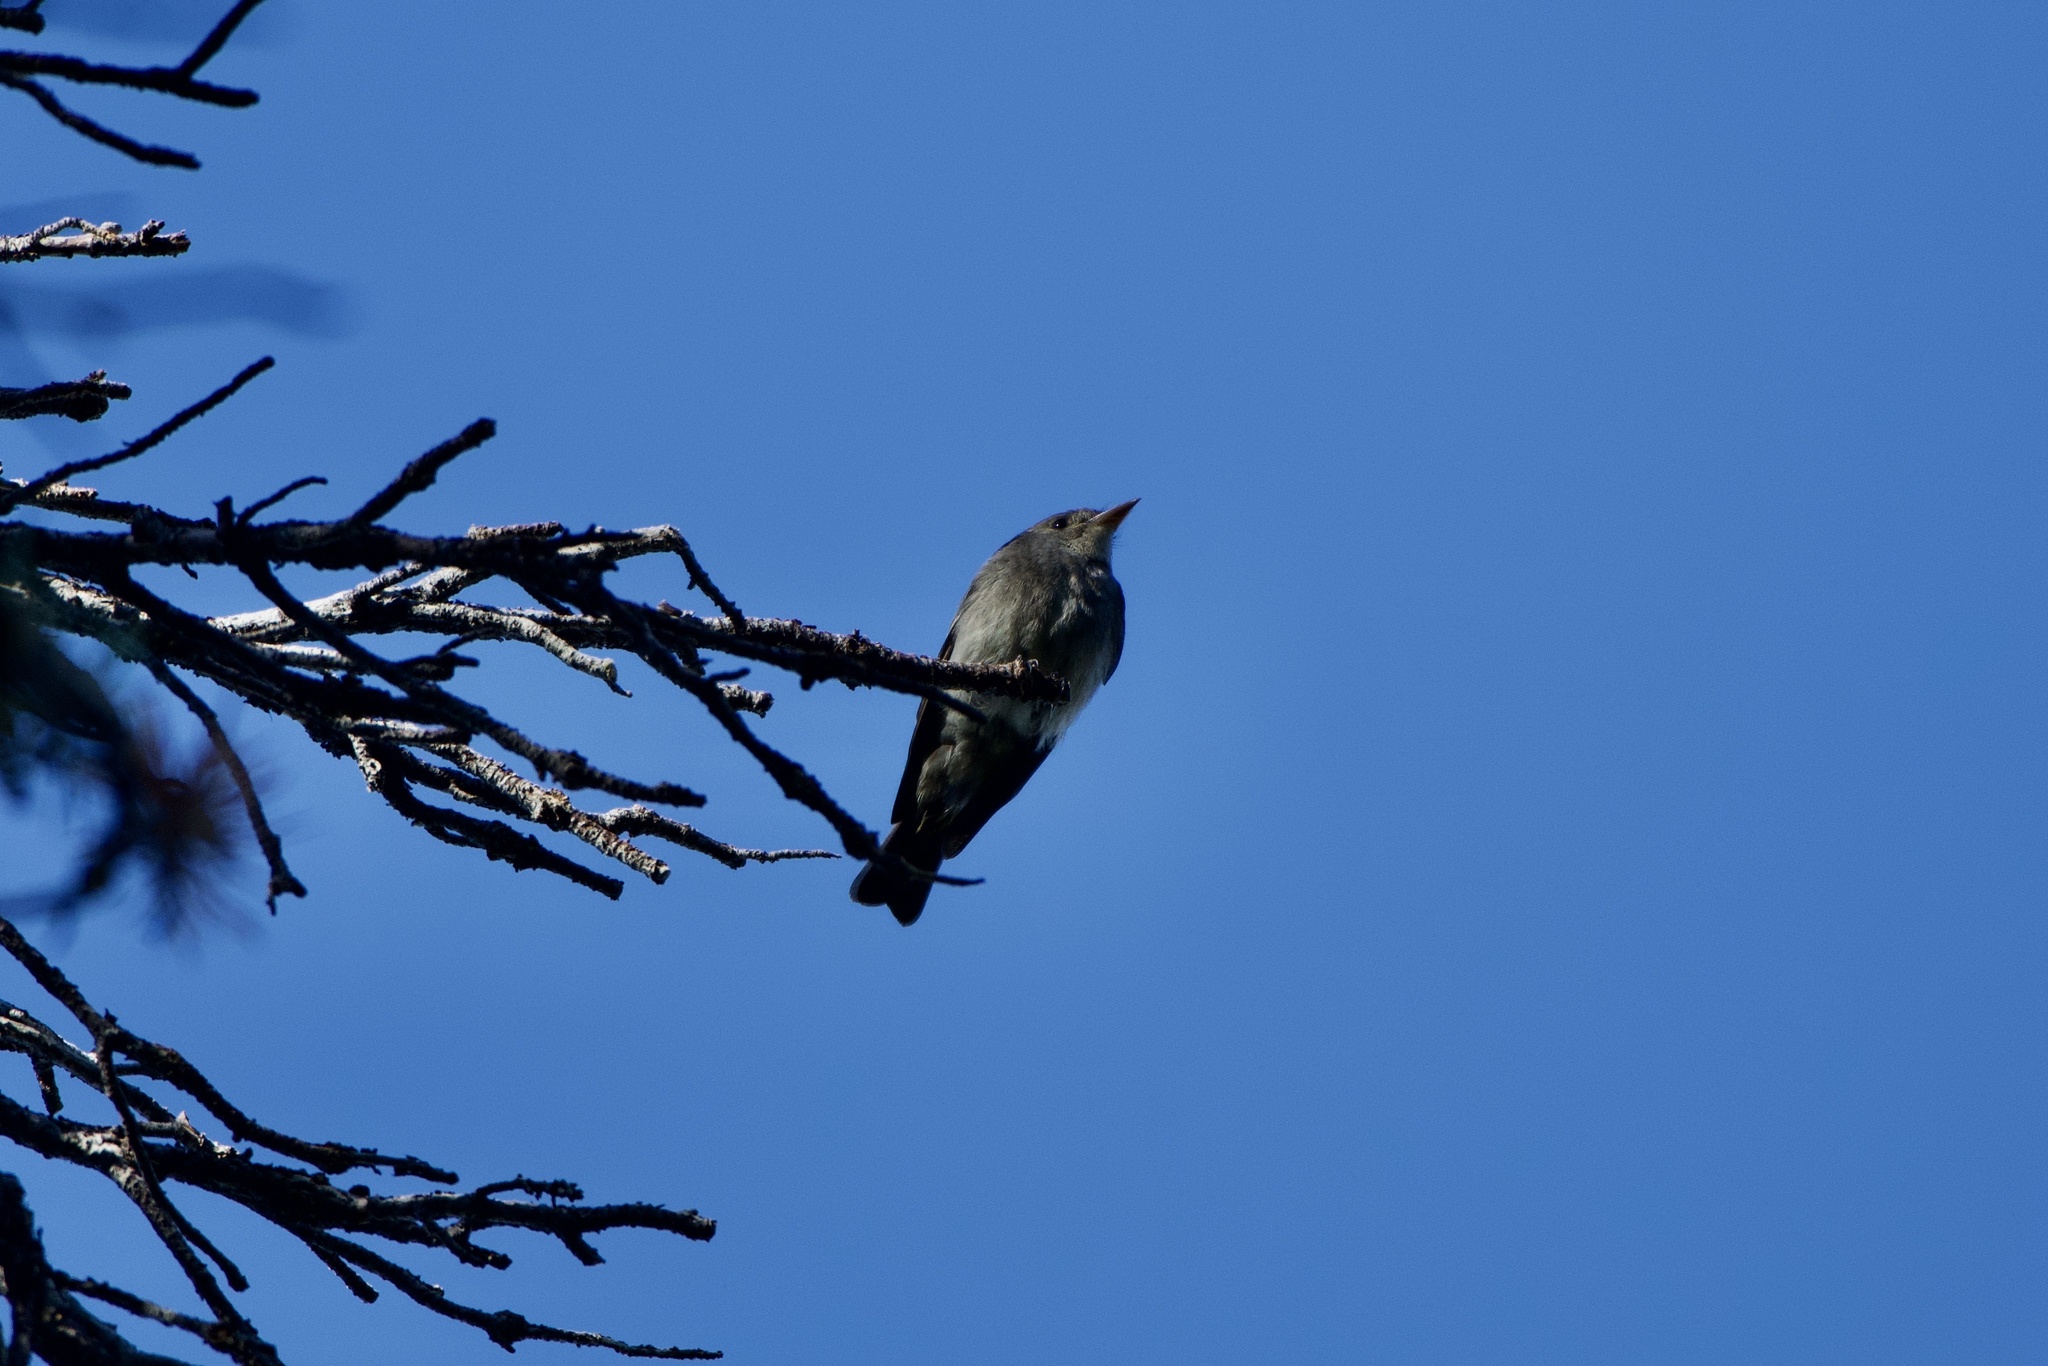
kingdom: Animalia
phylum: Chordata
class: Aves
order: Passeriformes
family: Tyrannidae
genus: Contopus
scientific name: Contopus sordidulus
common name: Western wood-pewee
